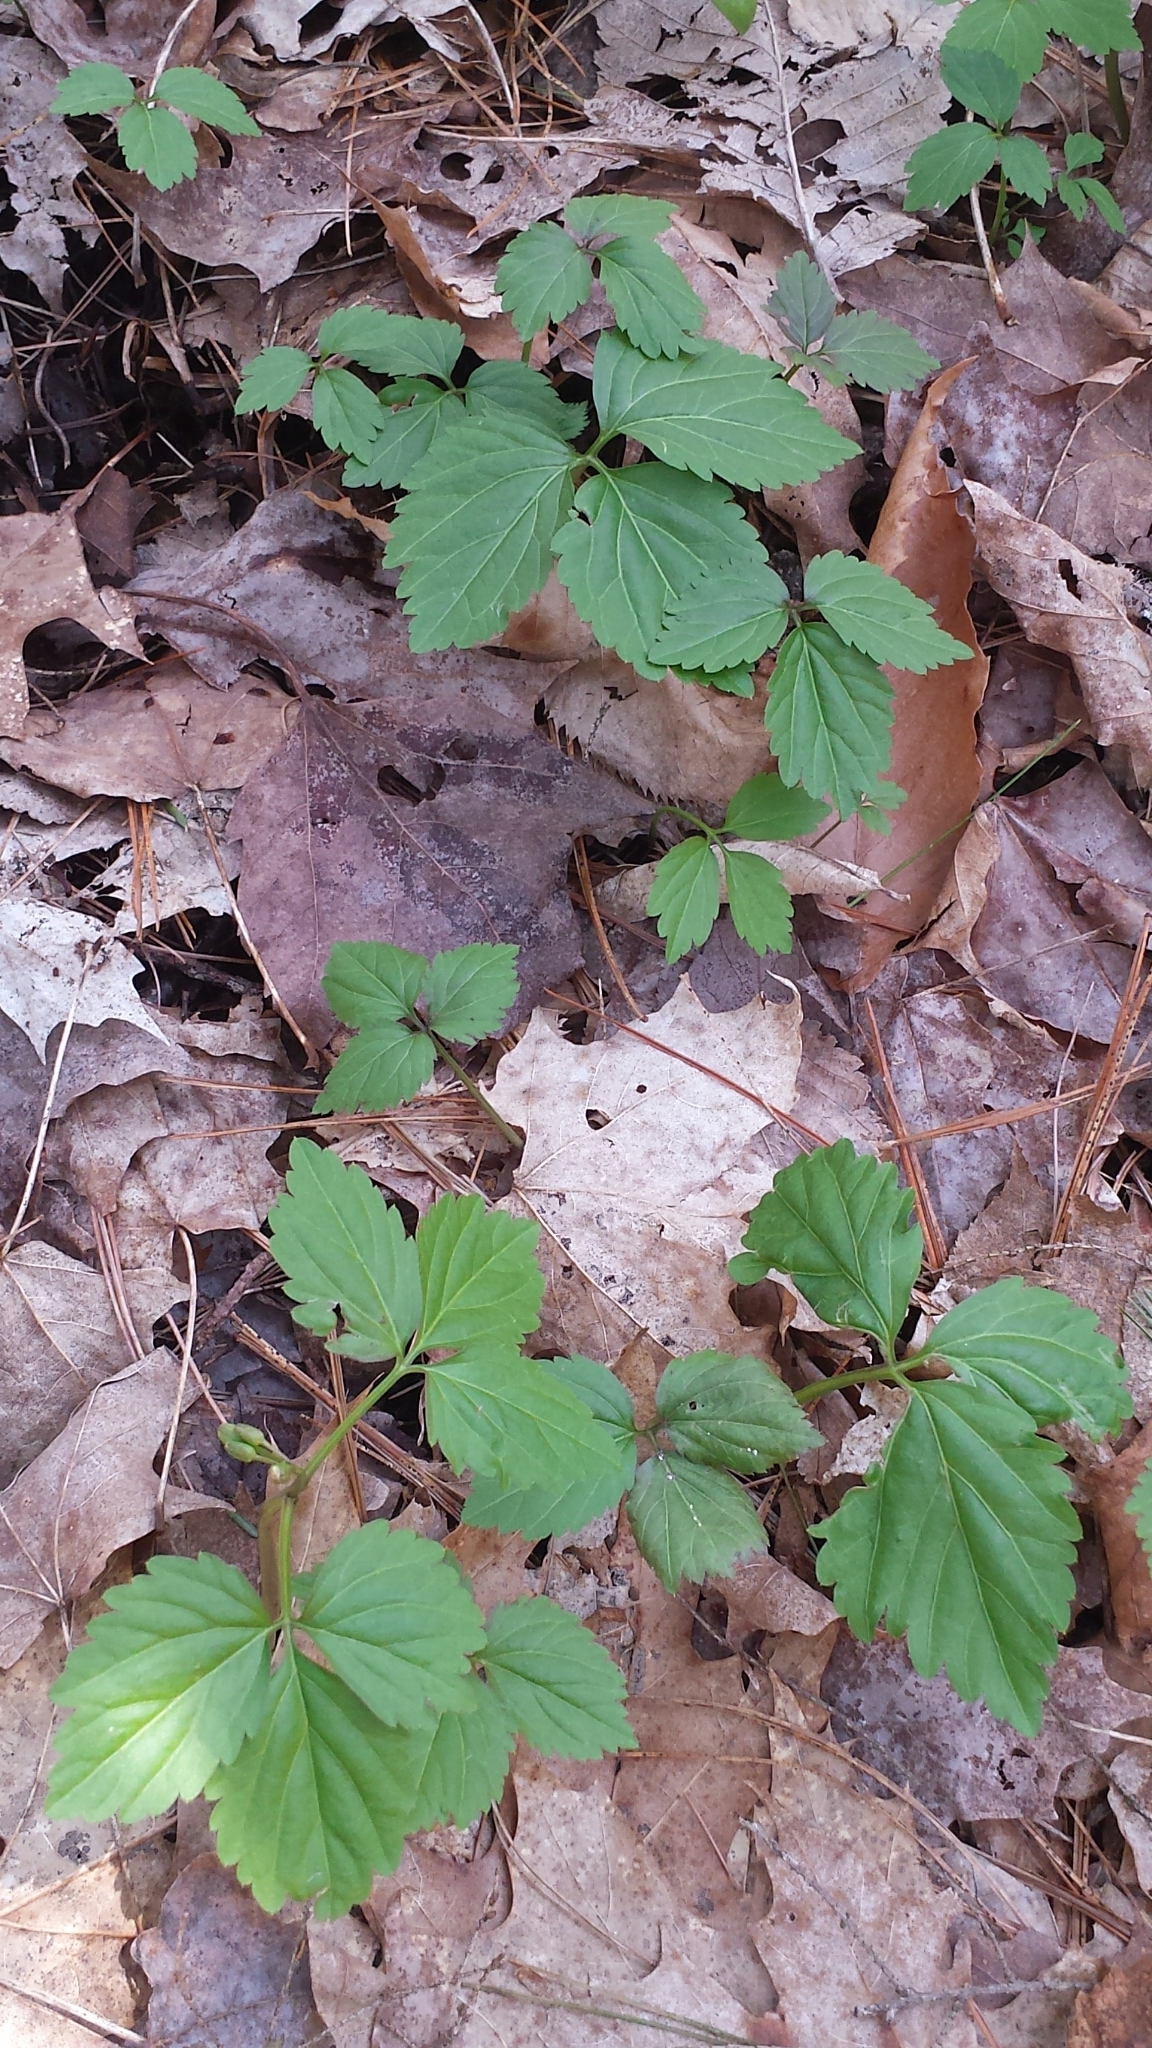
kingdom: Plantae
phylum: Tracheophyta
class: Magnoliopsida
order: Brassicales
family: Brassicaceae
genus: Cardamine
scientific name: Cardamine diphylla
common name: Broad-leaved toothwort
